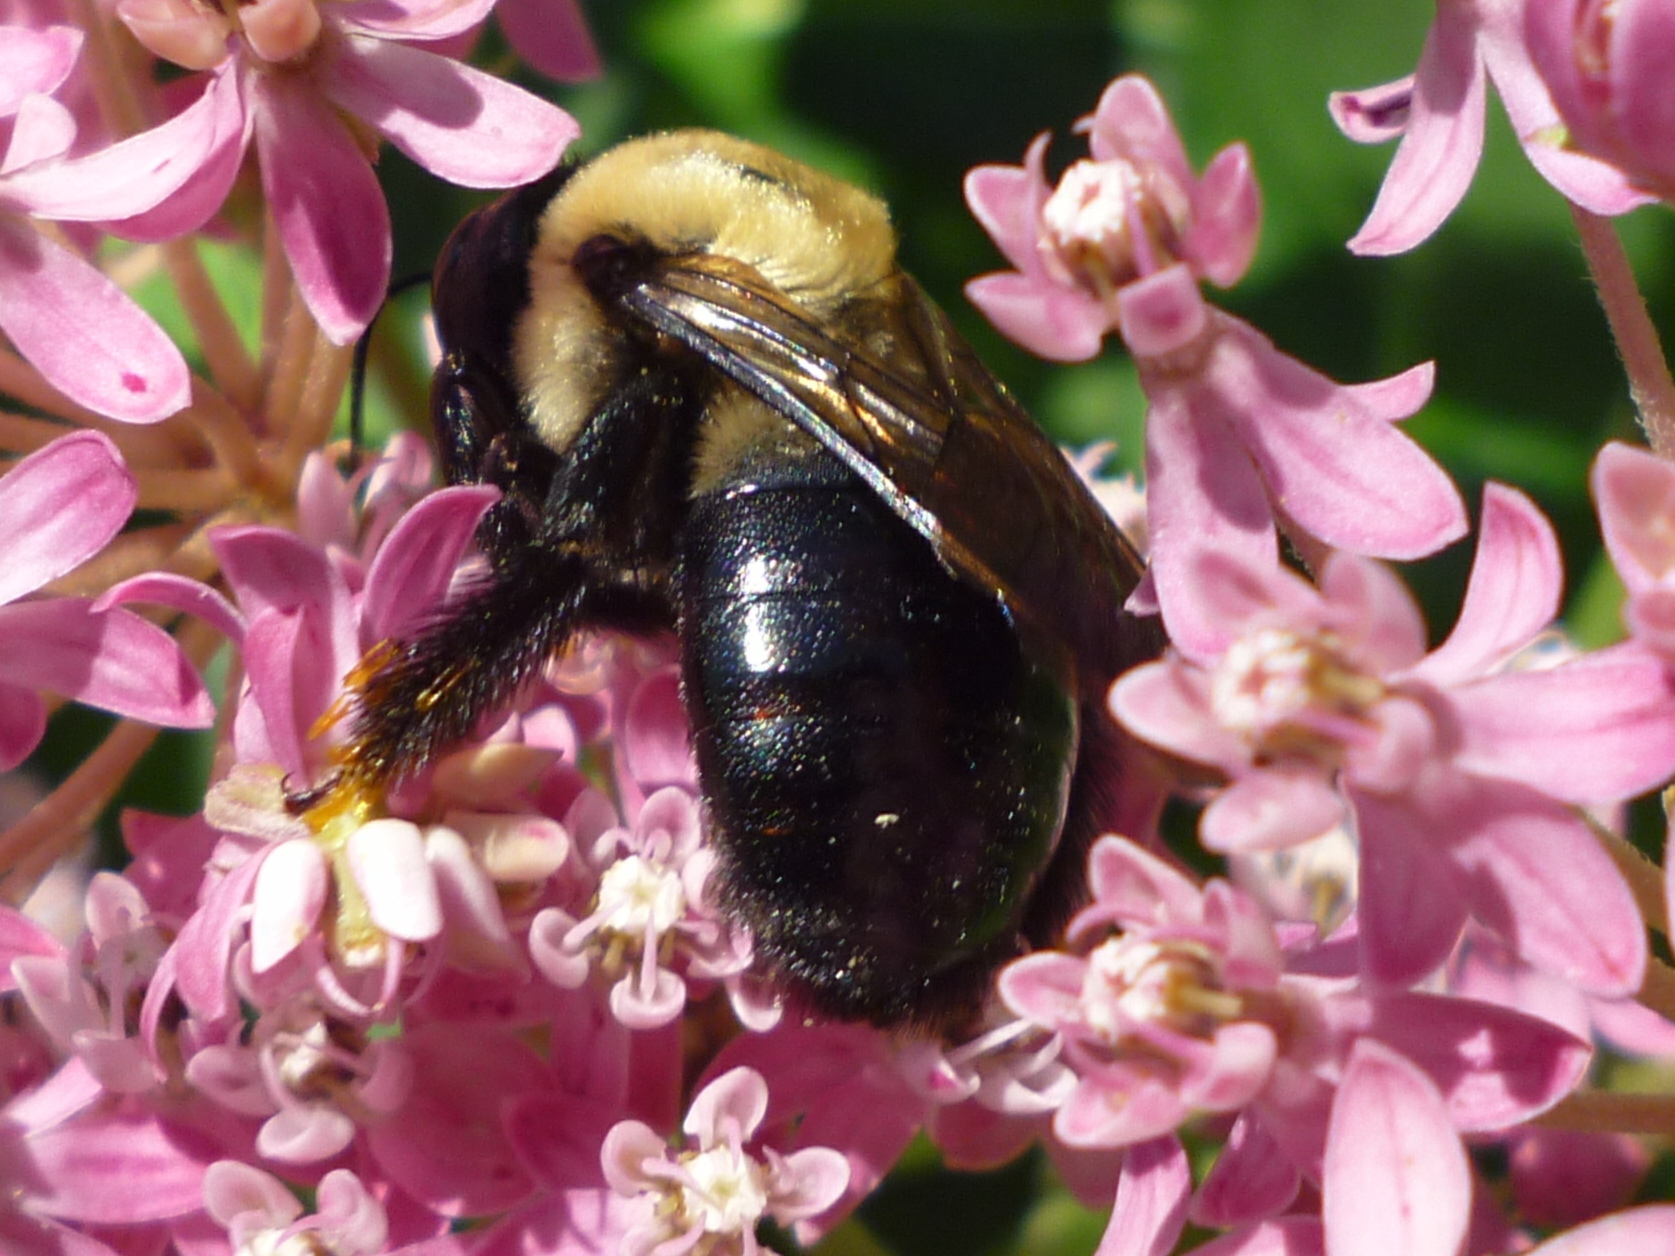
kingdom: Animalia
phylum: Arthropoda
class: Insecta
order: Hymenoptera
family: Apidae
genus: Xylocopa
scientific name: Xylocopa virginica
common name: Carpenter bee
